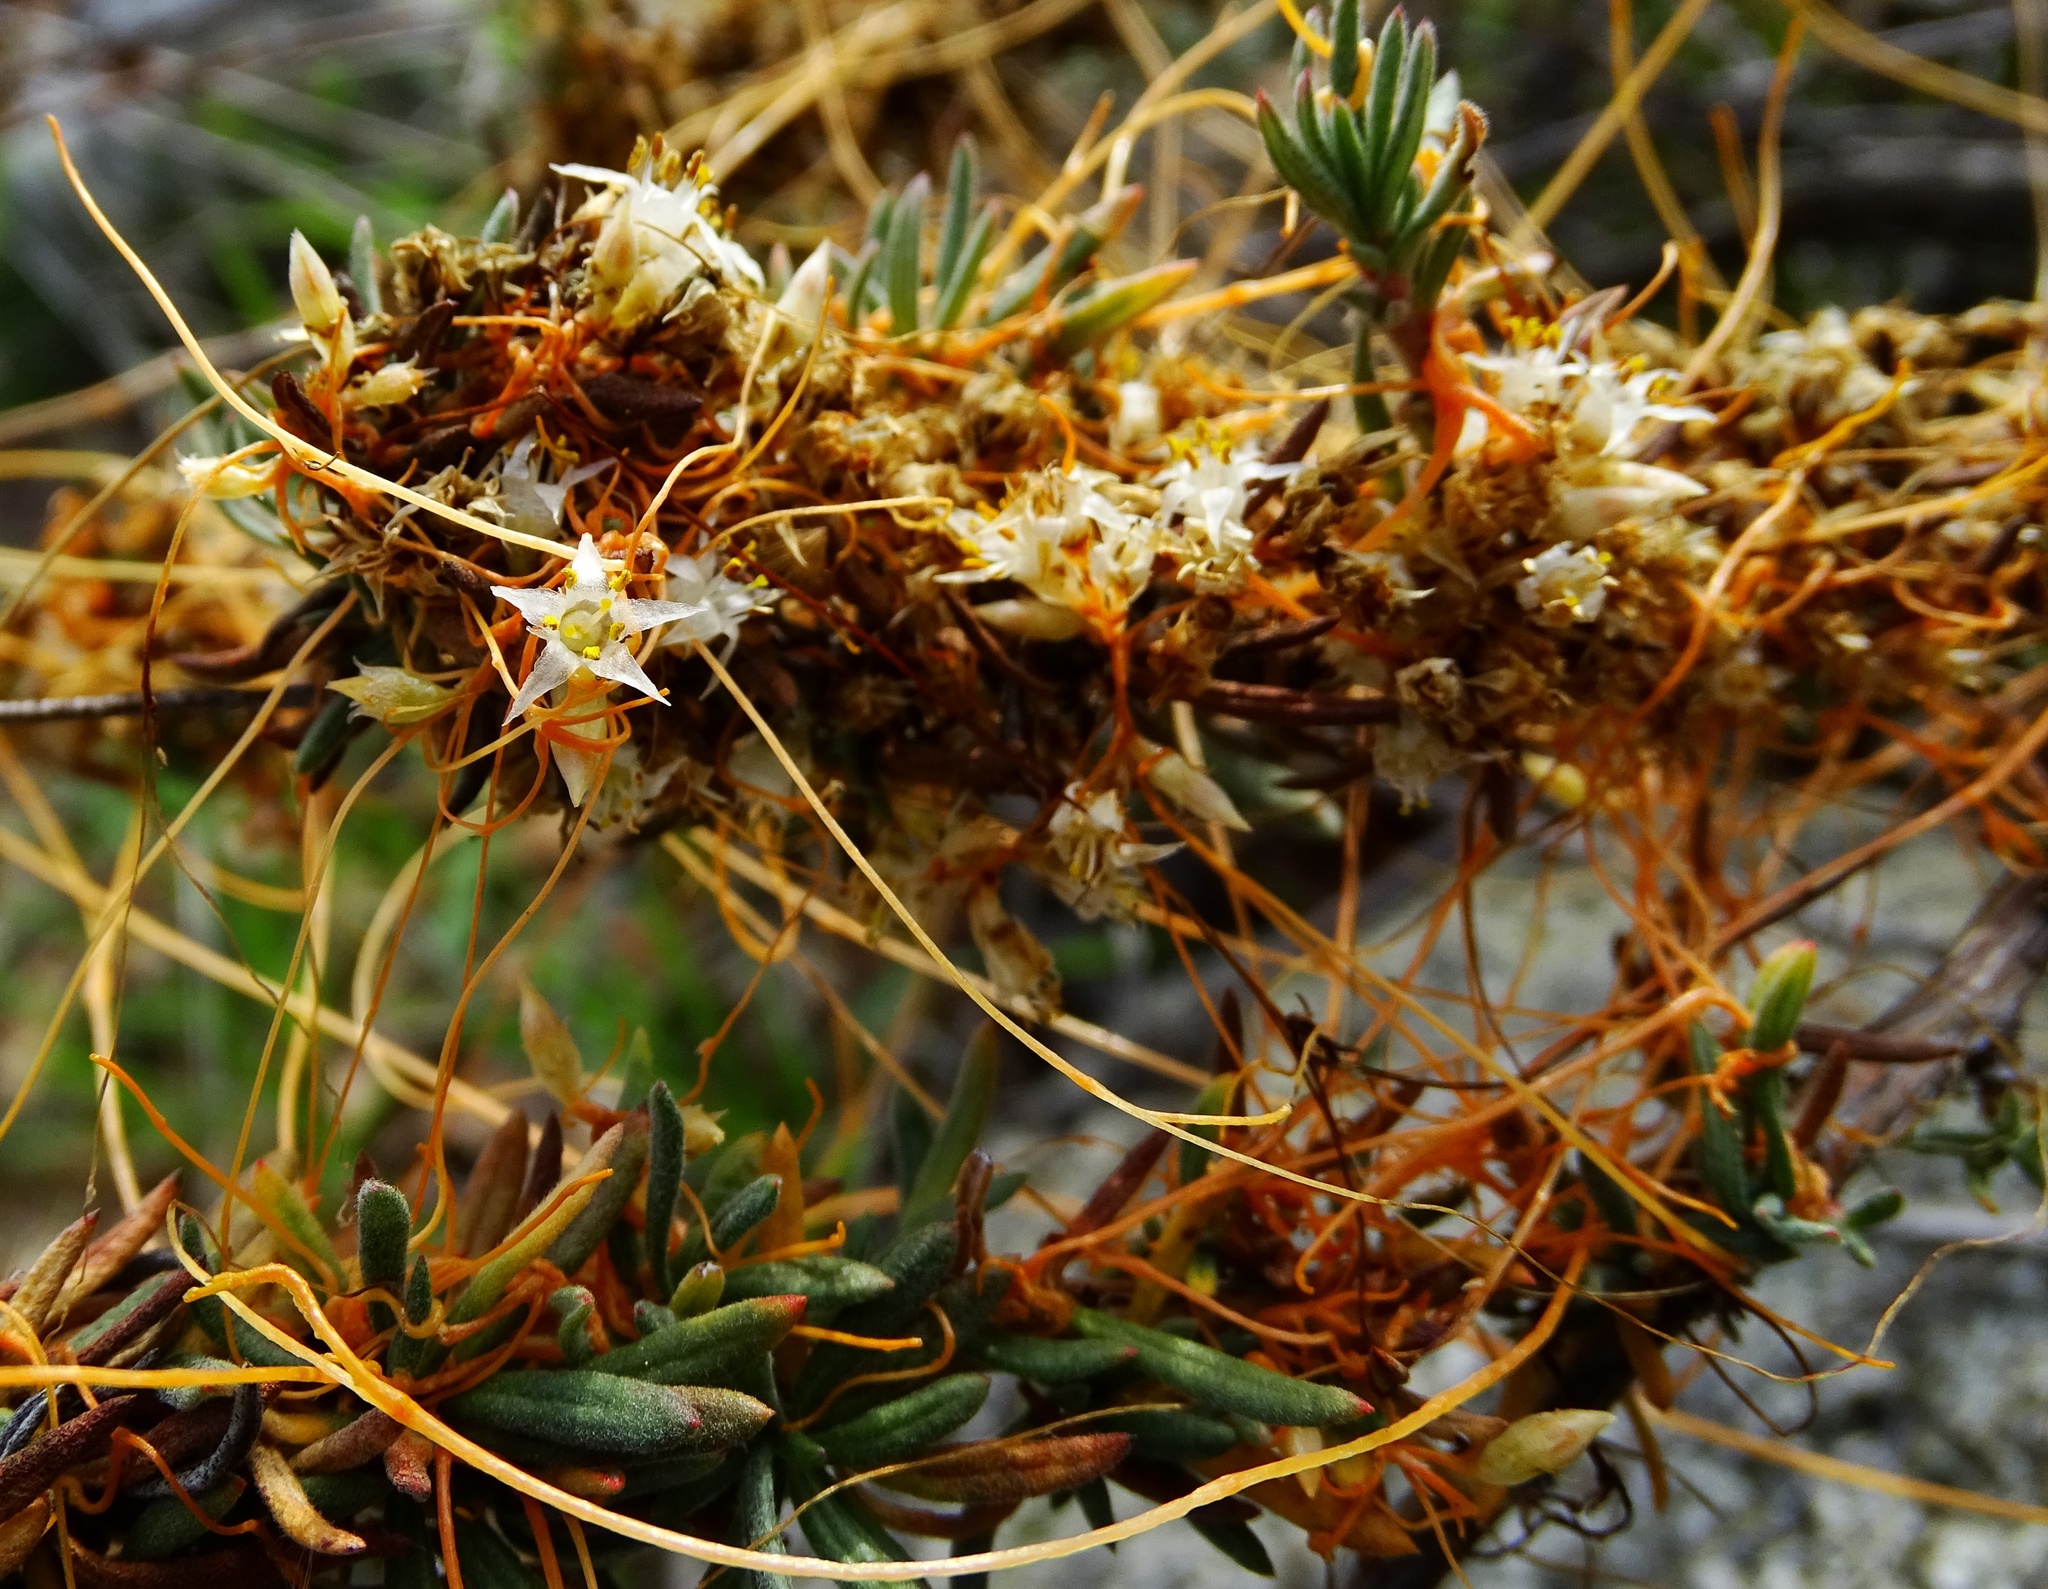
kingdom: Plantae
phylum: Tracheophyta
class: Magnoliopsida
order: Solanales
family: Convolvulaceae
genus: Cuscuta
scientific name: Cuscuta californica
